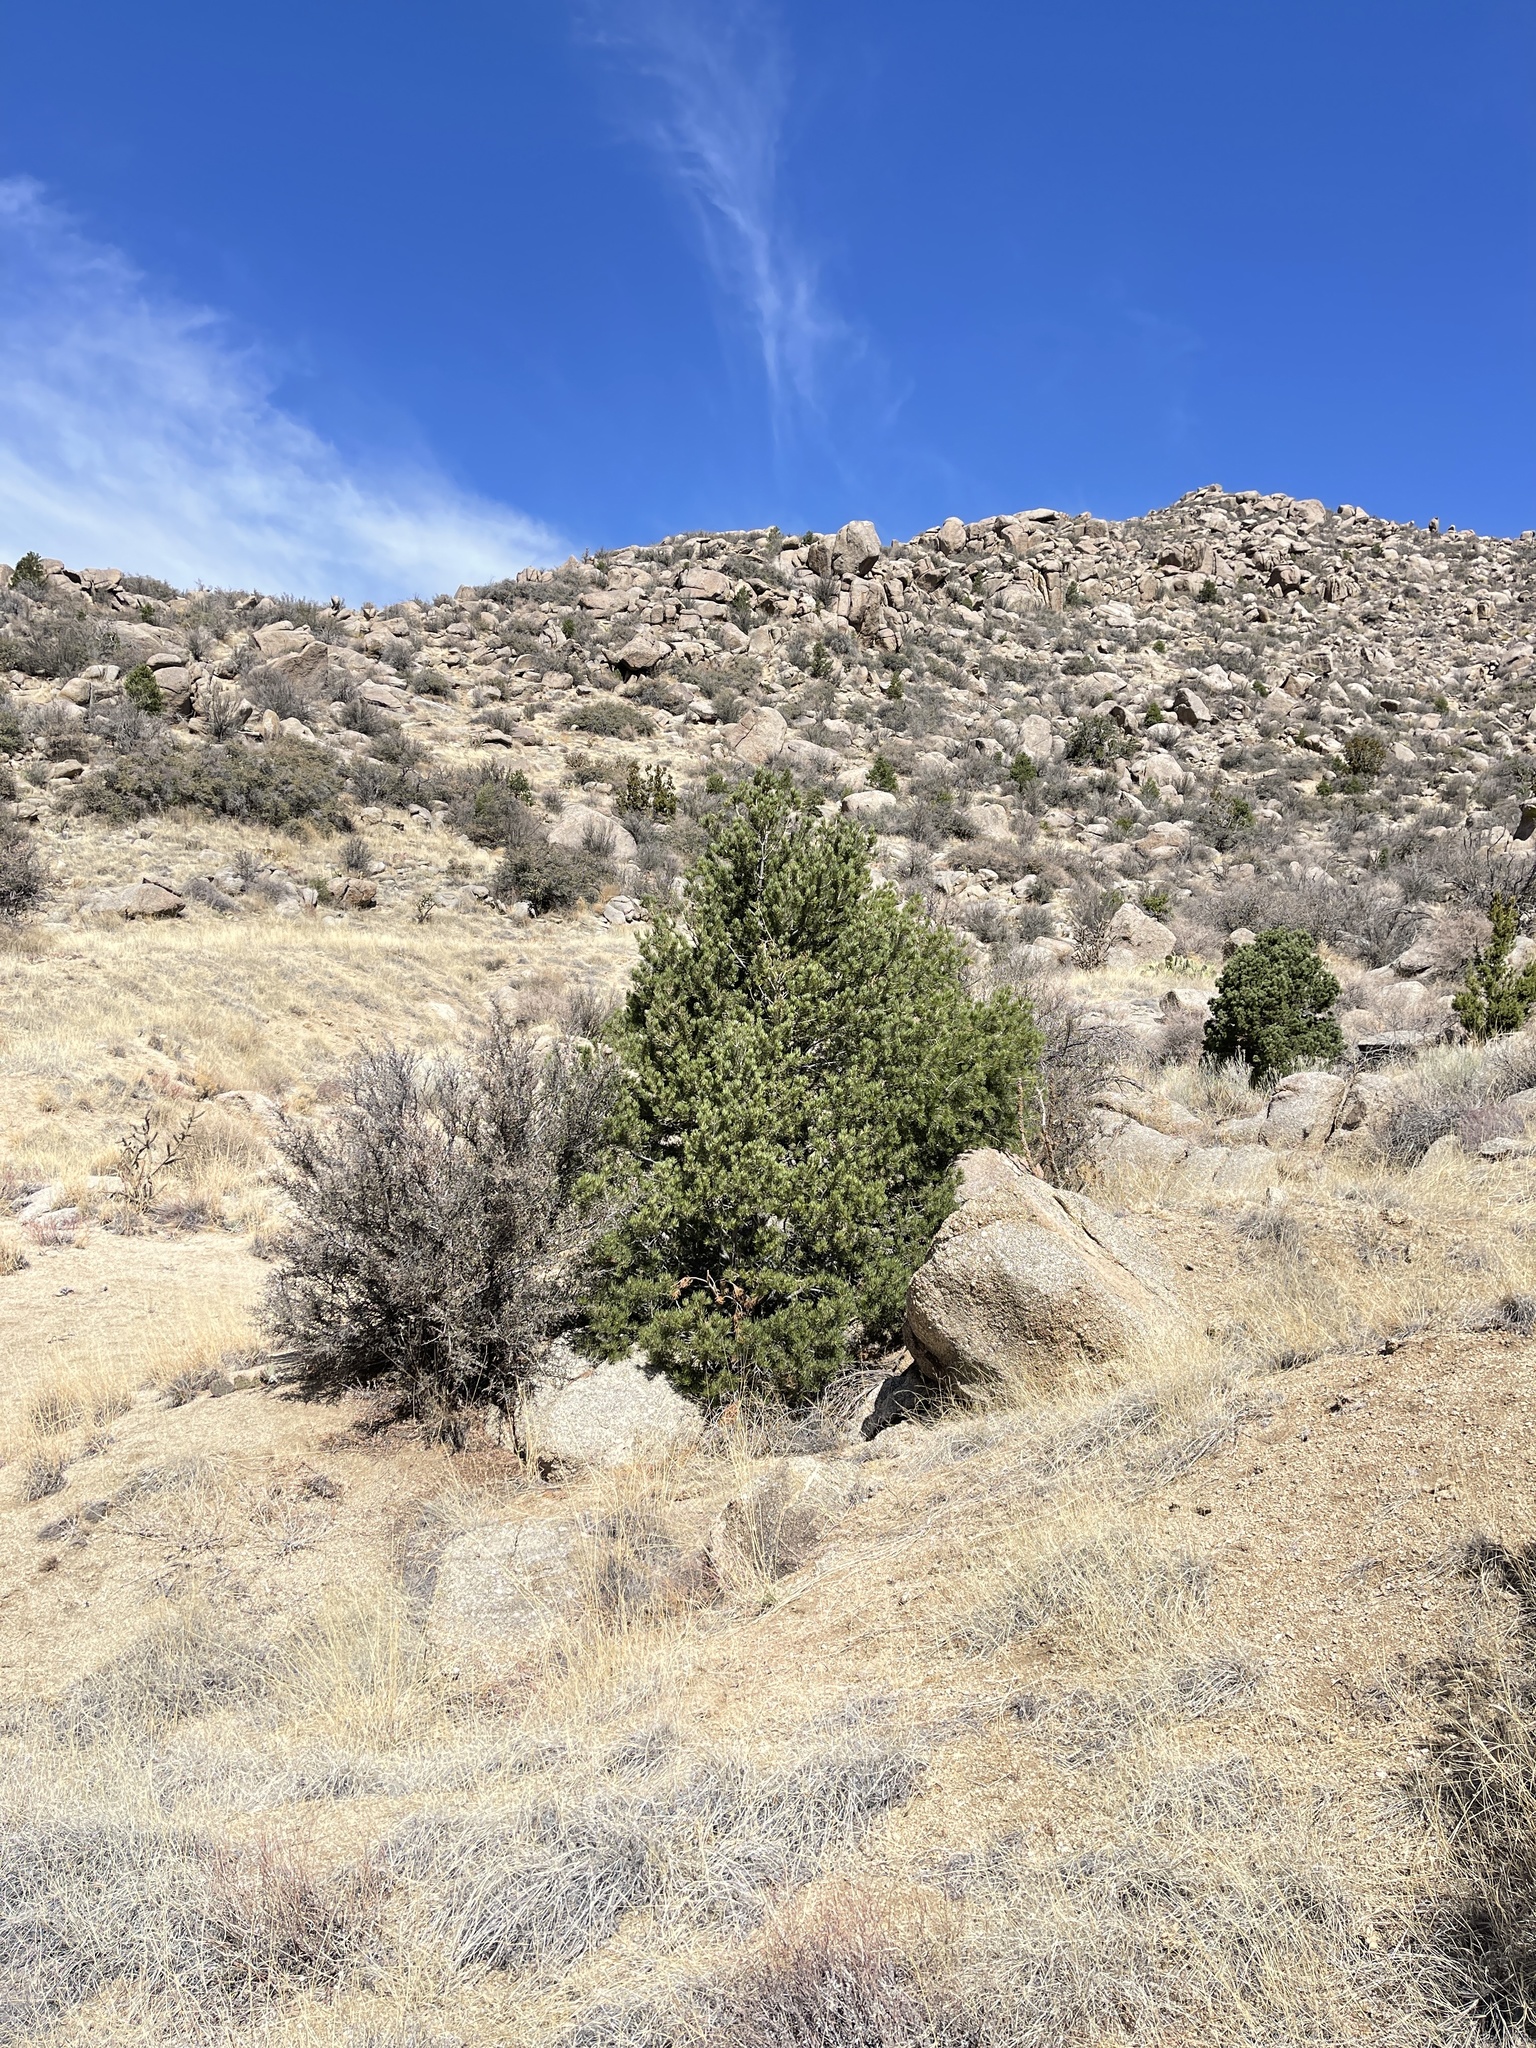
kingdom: Plantae
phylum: Tracheophyta
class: Pinopsida
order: Pinales
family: Pinaceae
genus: Pinus
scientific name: Pinus edulis
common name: Colorado pinyon
